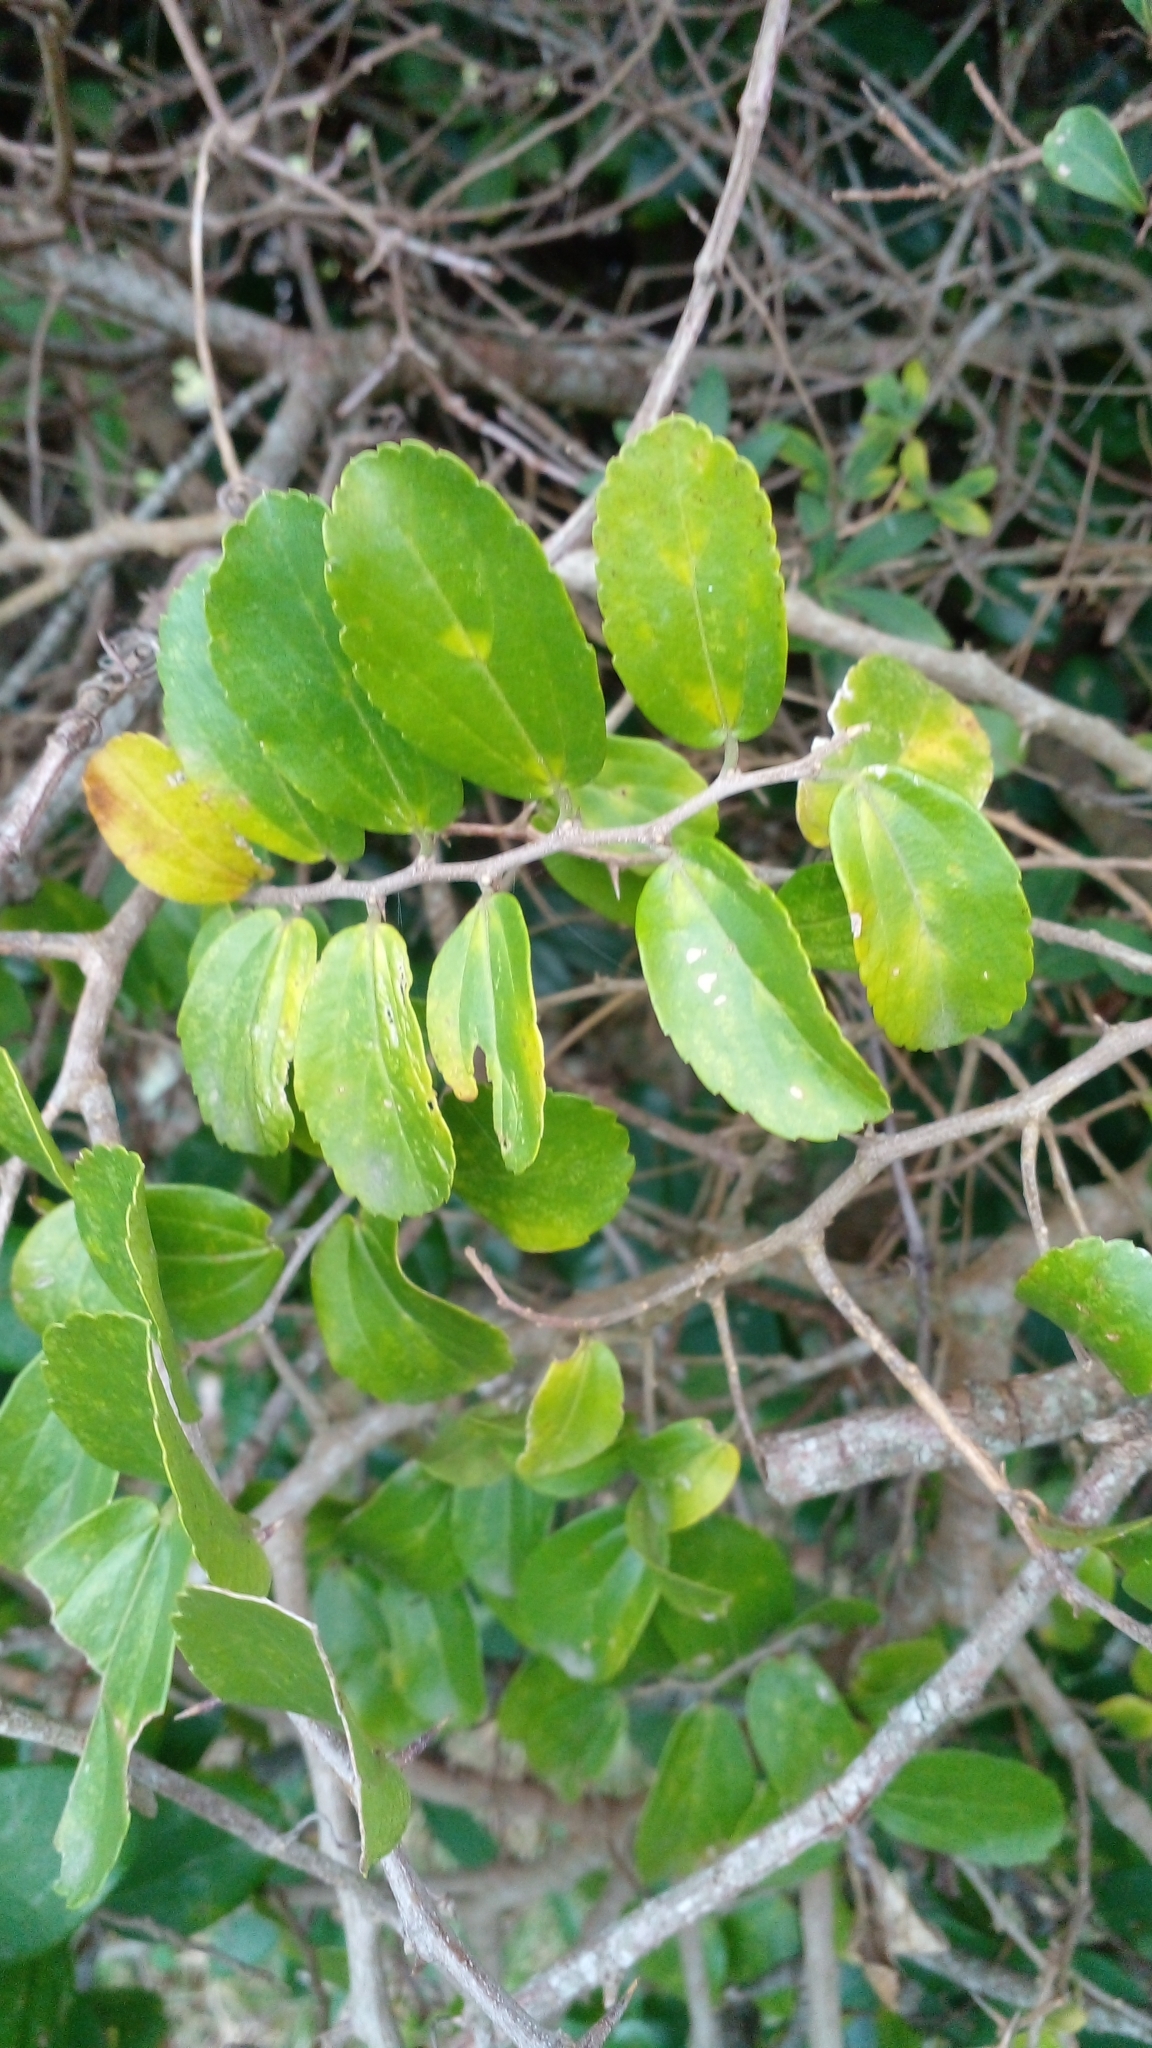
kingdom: Plantae
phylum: Tracheophyta
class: Magnoliopsida
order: Rosales
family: Cannabaceae
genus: Celtis
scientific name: Celtis spinosa
